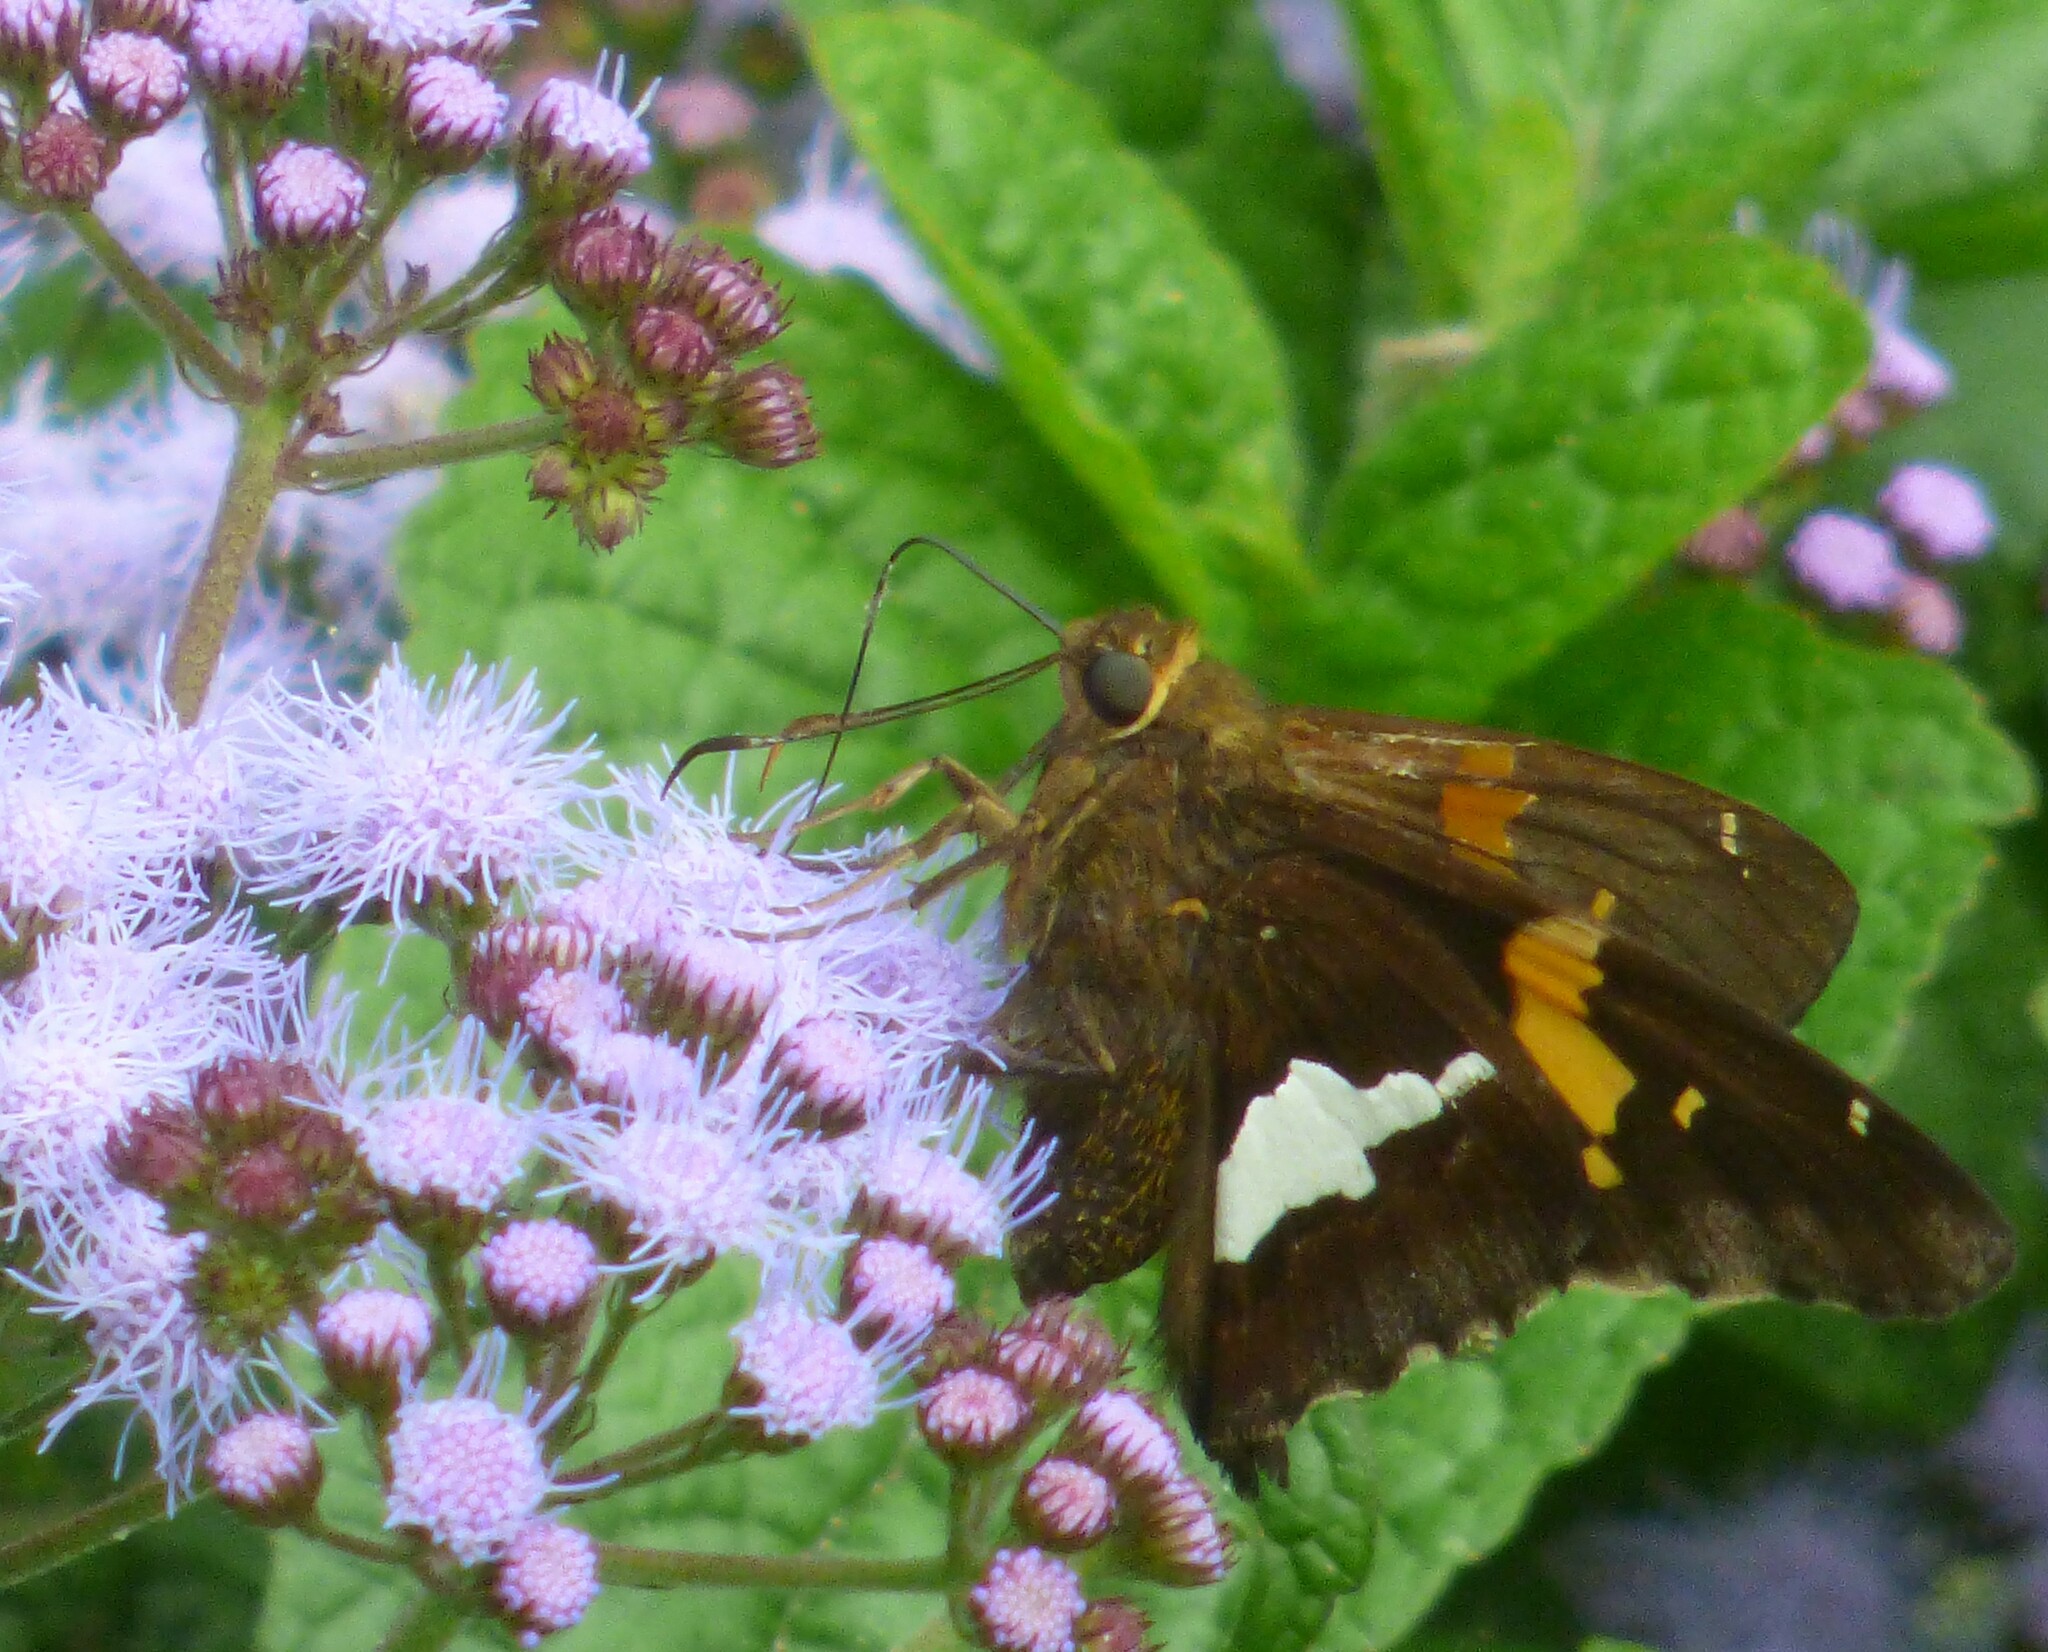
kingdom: Animalia
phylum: Arthropoda
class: Insecta
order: Lepidoptera
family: Hesperiidae
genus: Epargyreus
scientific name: Epargyreus clarus
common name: Silver-spotted skipper
